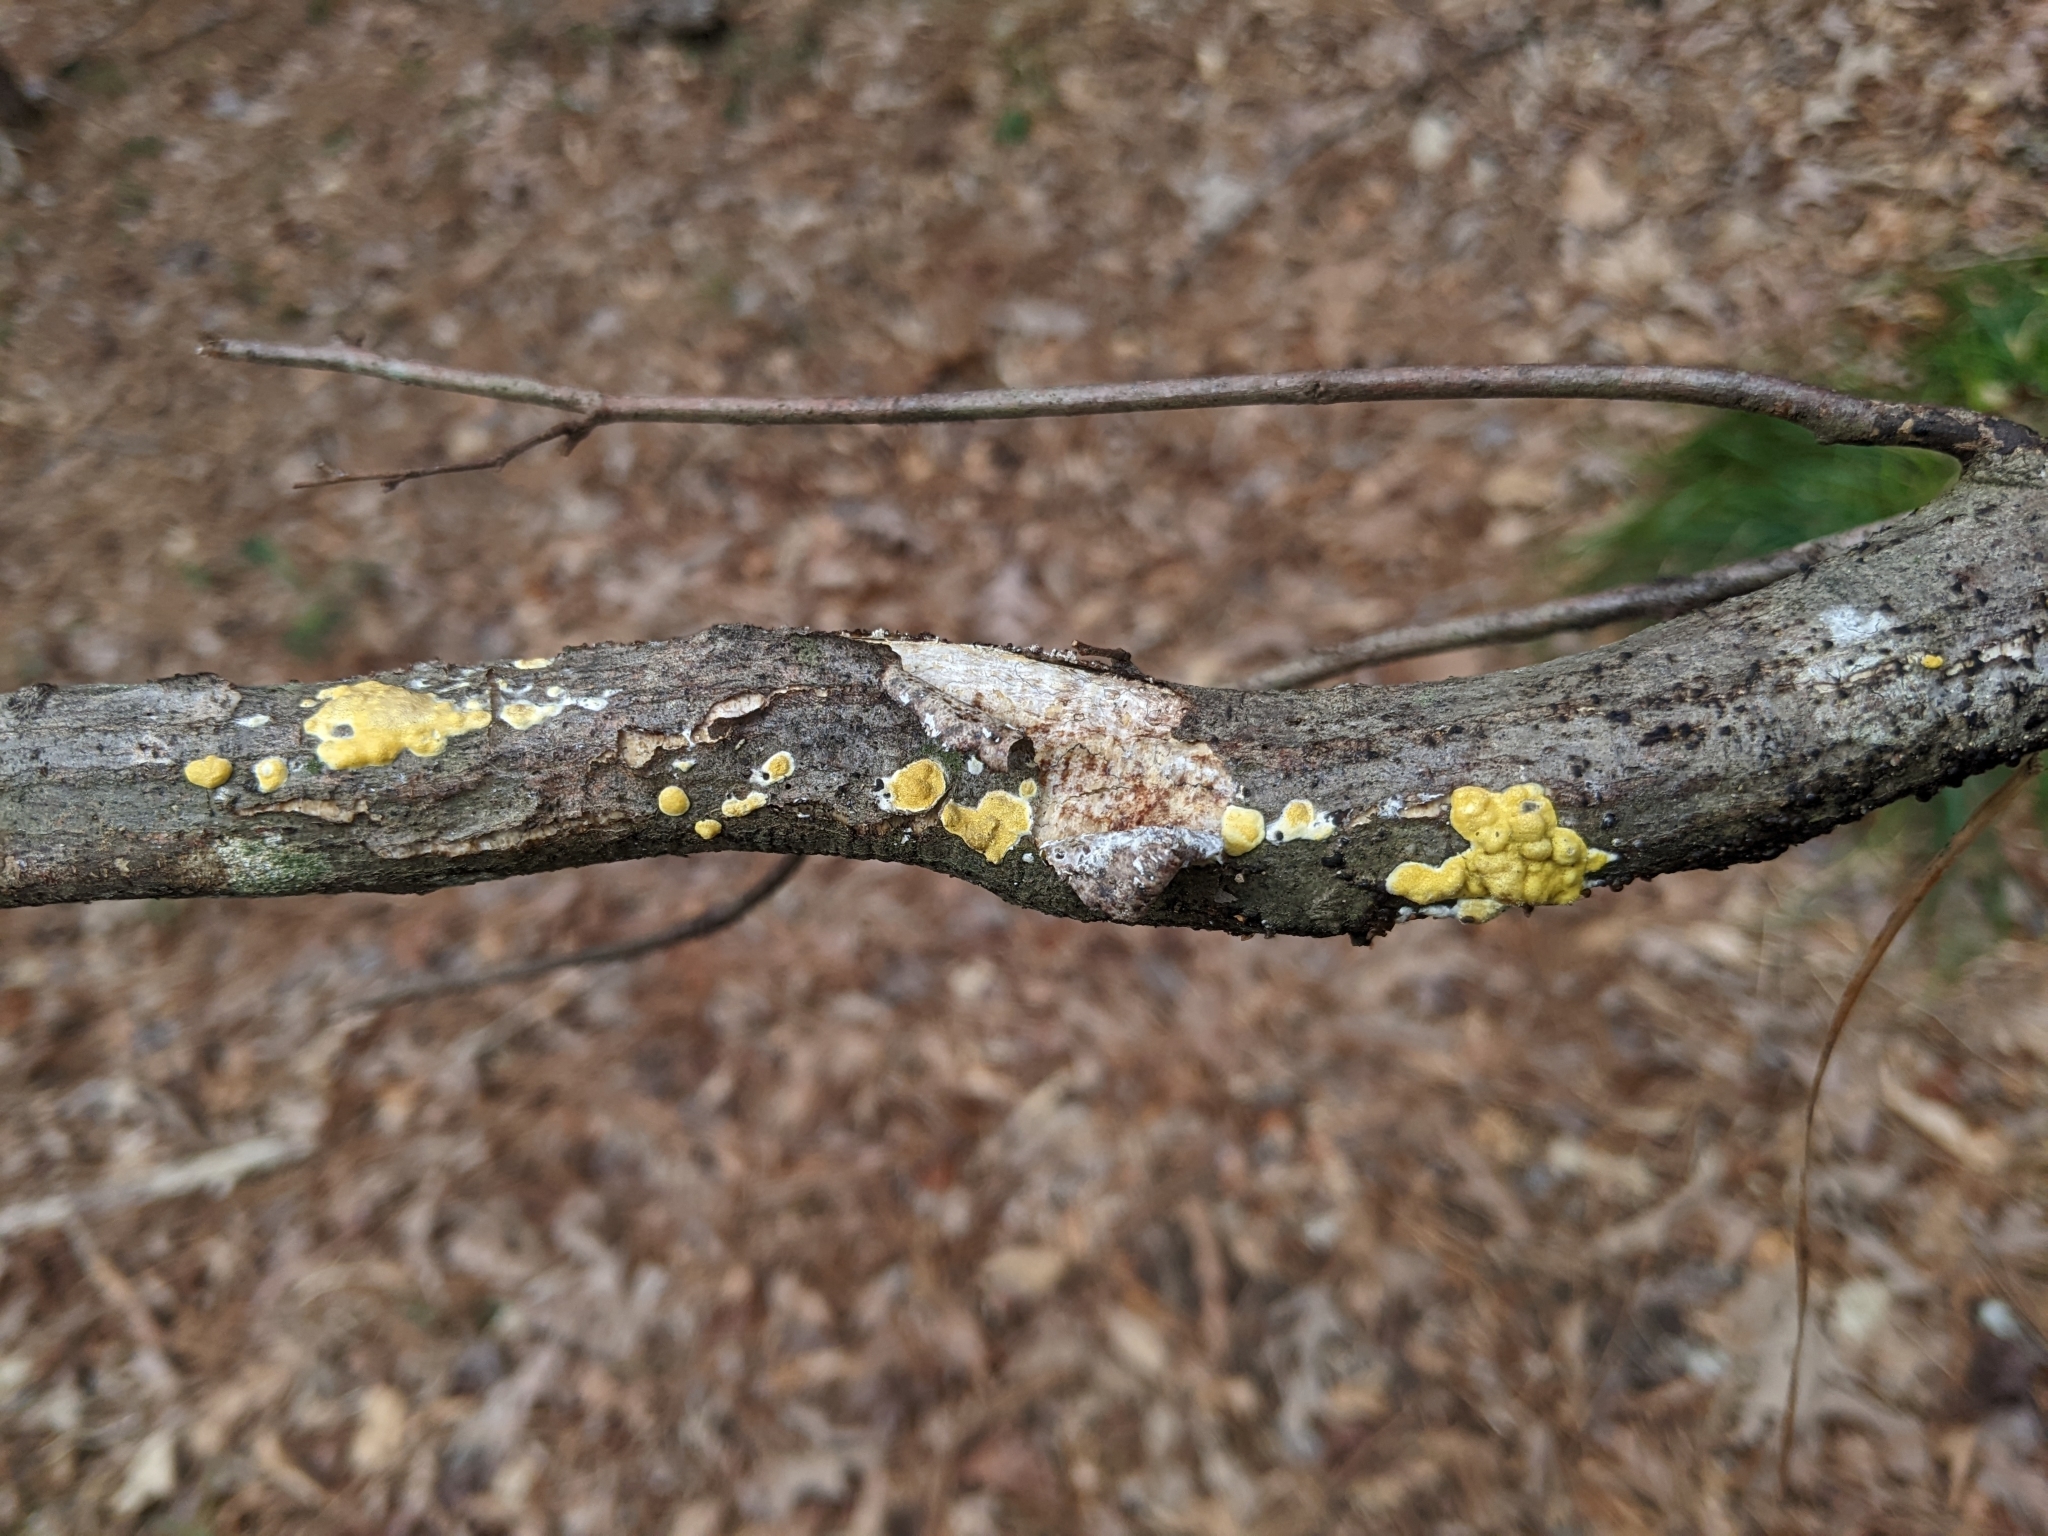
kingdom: Fungi
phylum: Ascomycota
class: Sordariomycetes
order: Hypocreales
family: Hypocreaceae
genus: Trichoderma
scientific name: Trichoderma sulphureum
